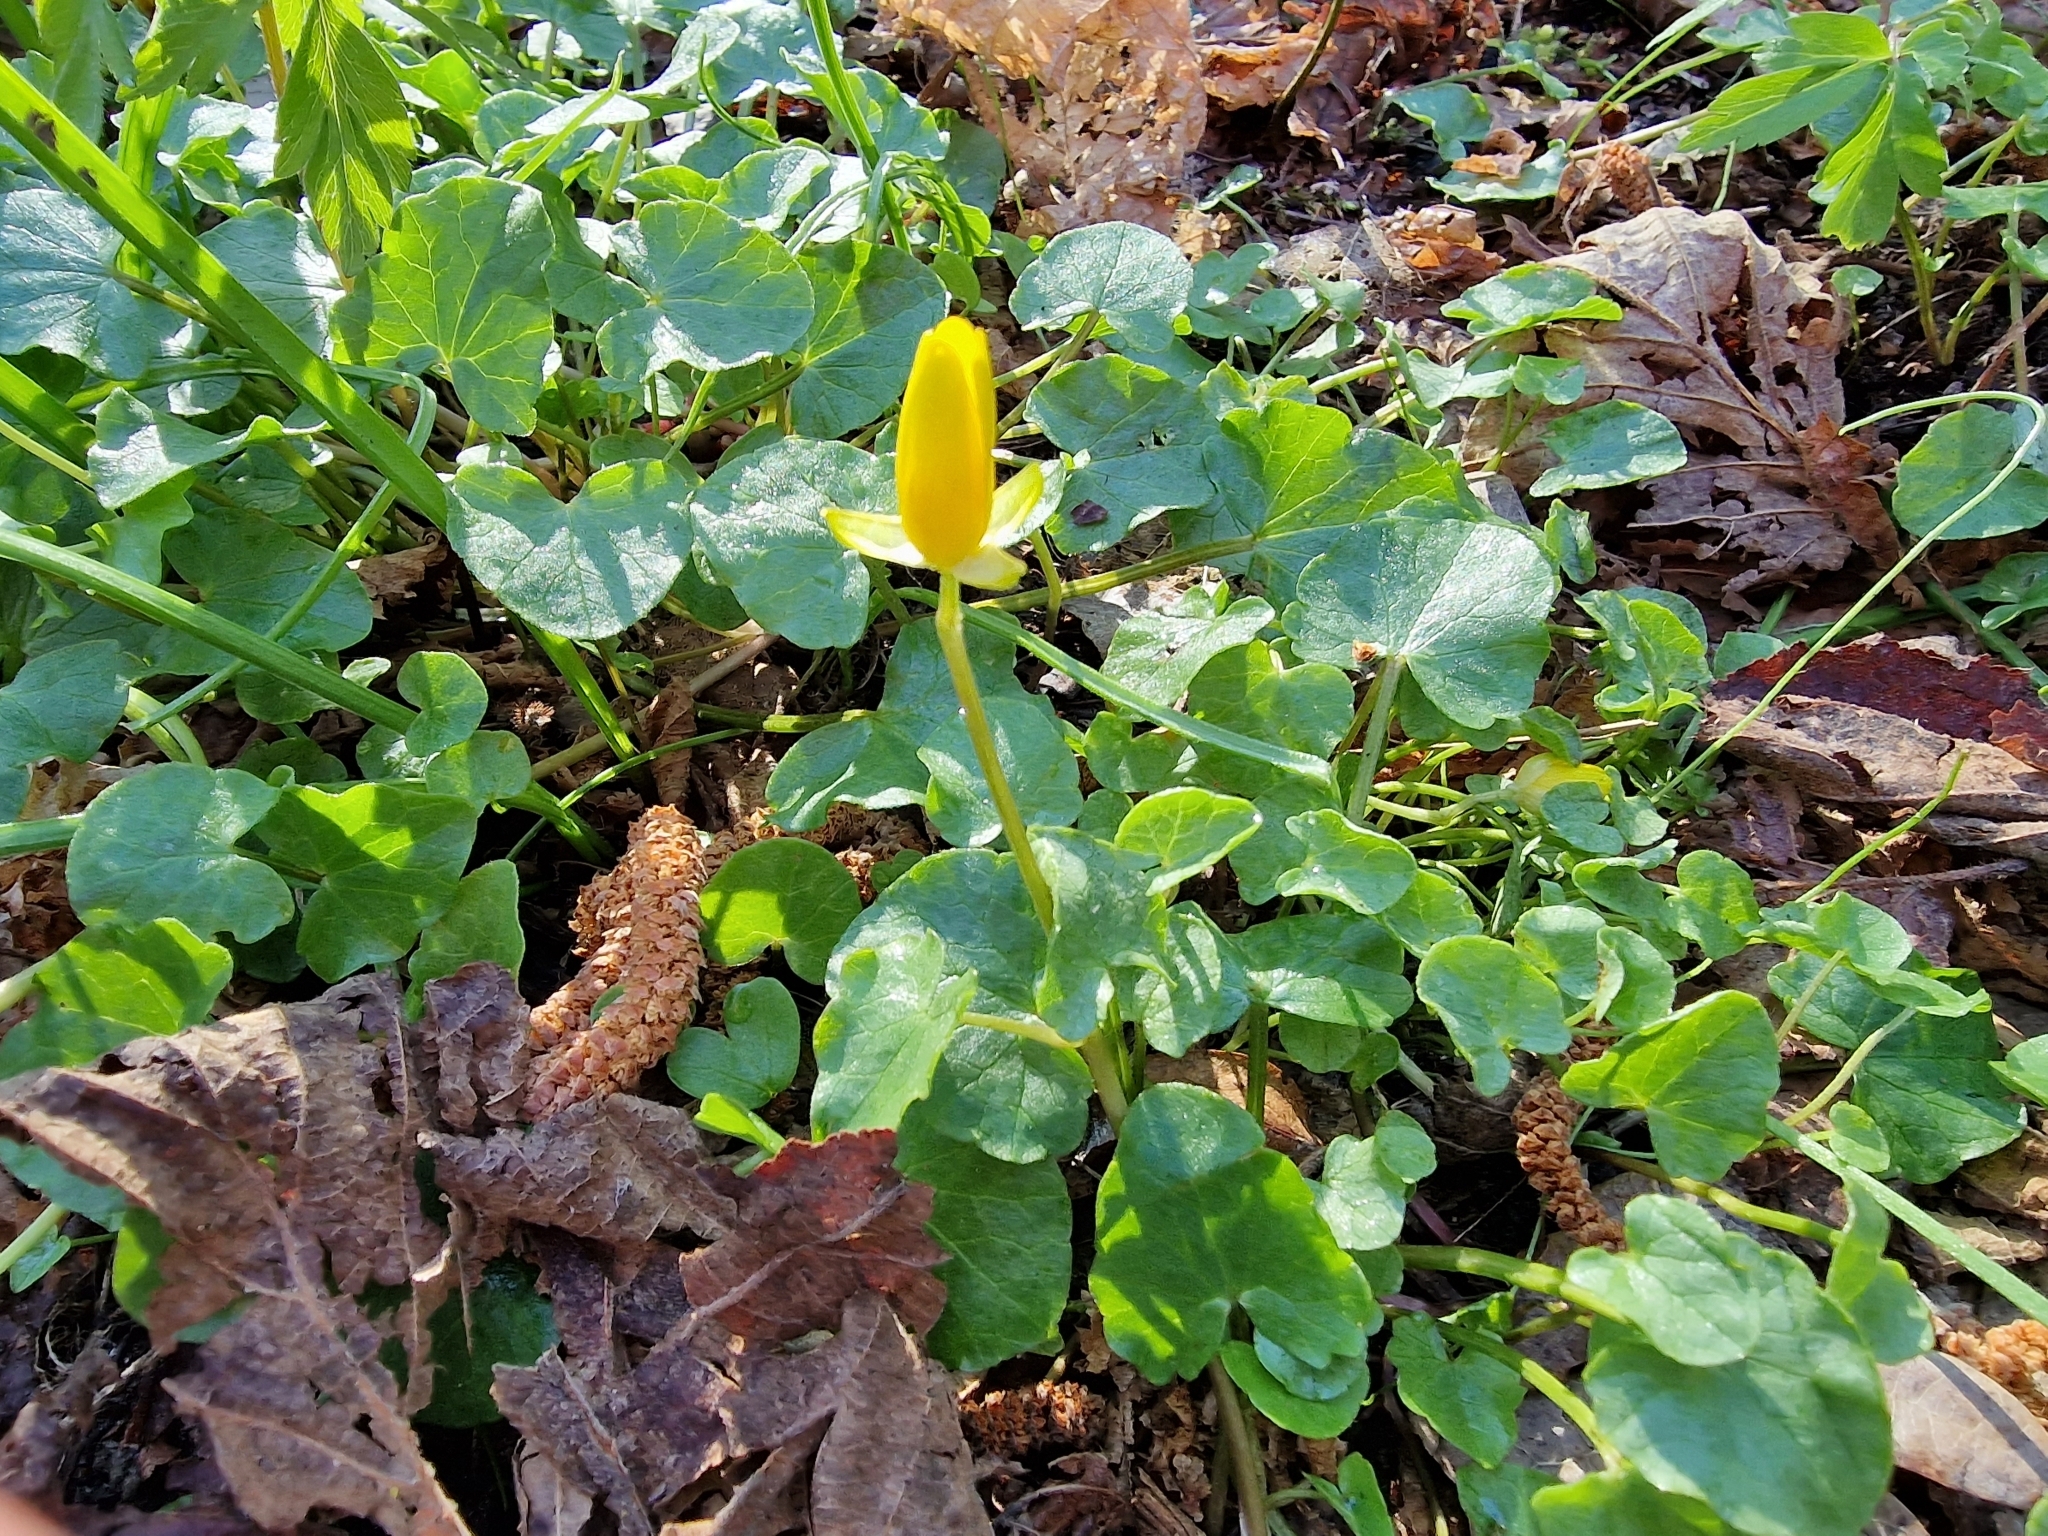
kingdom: Plantae
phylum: Tracheophyta
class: Magnoliopsida
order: Ranunculales
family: Ranunculaceae
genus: Ficaria
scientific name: Ficaria verna
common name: Lesser celandine
